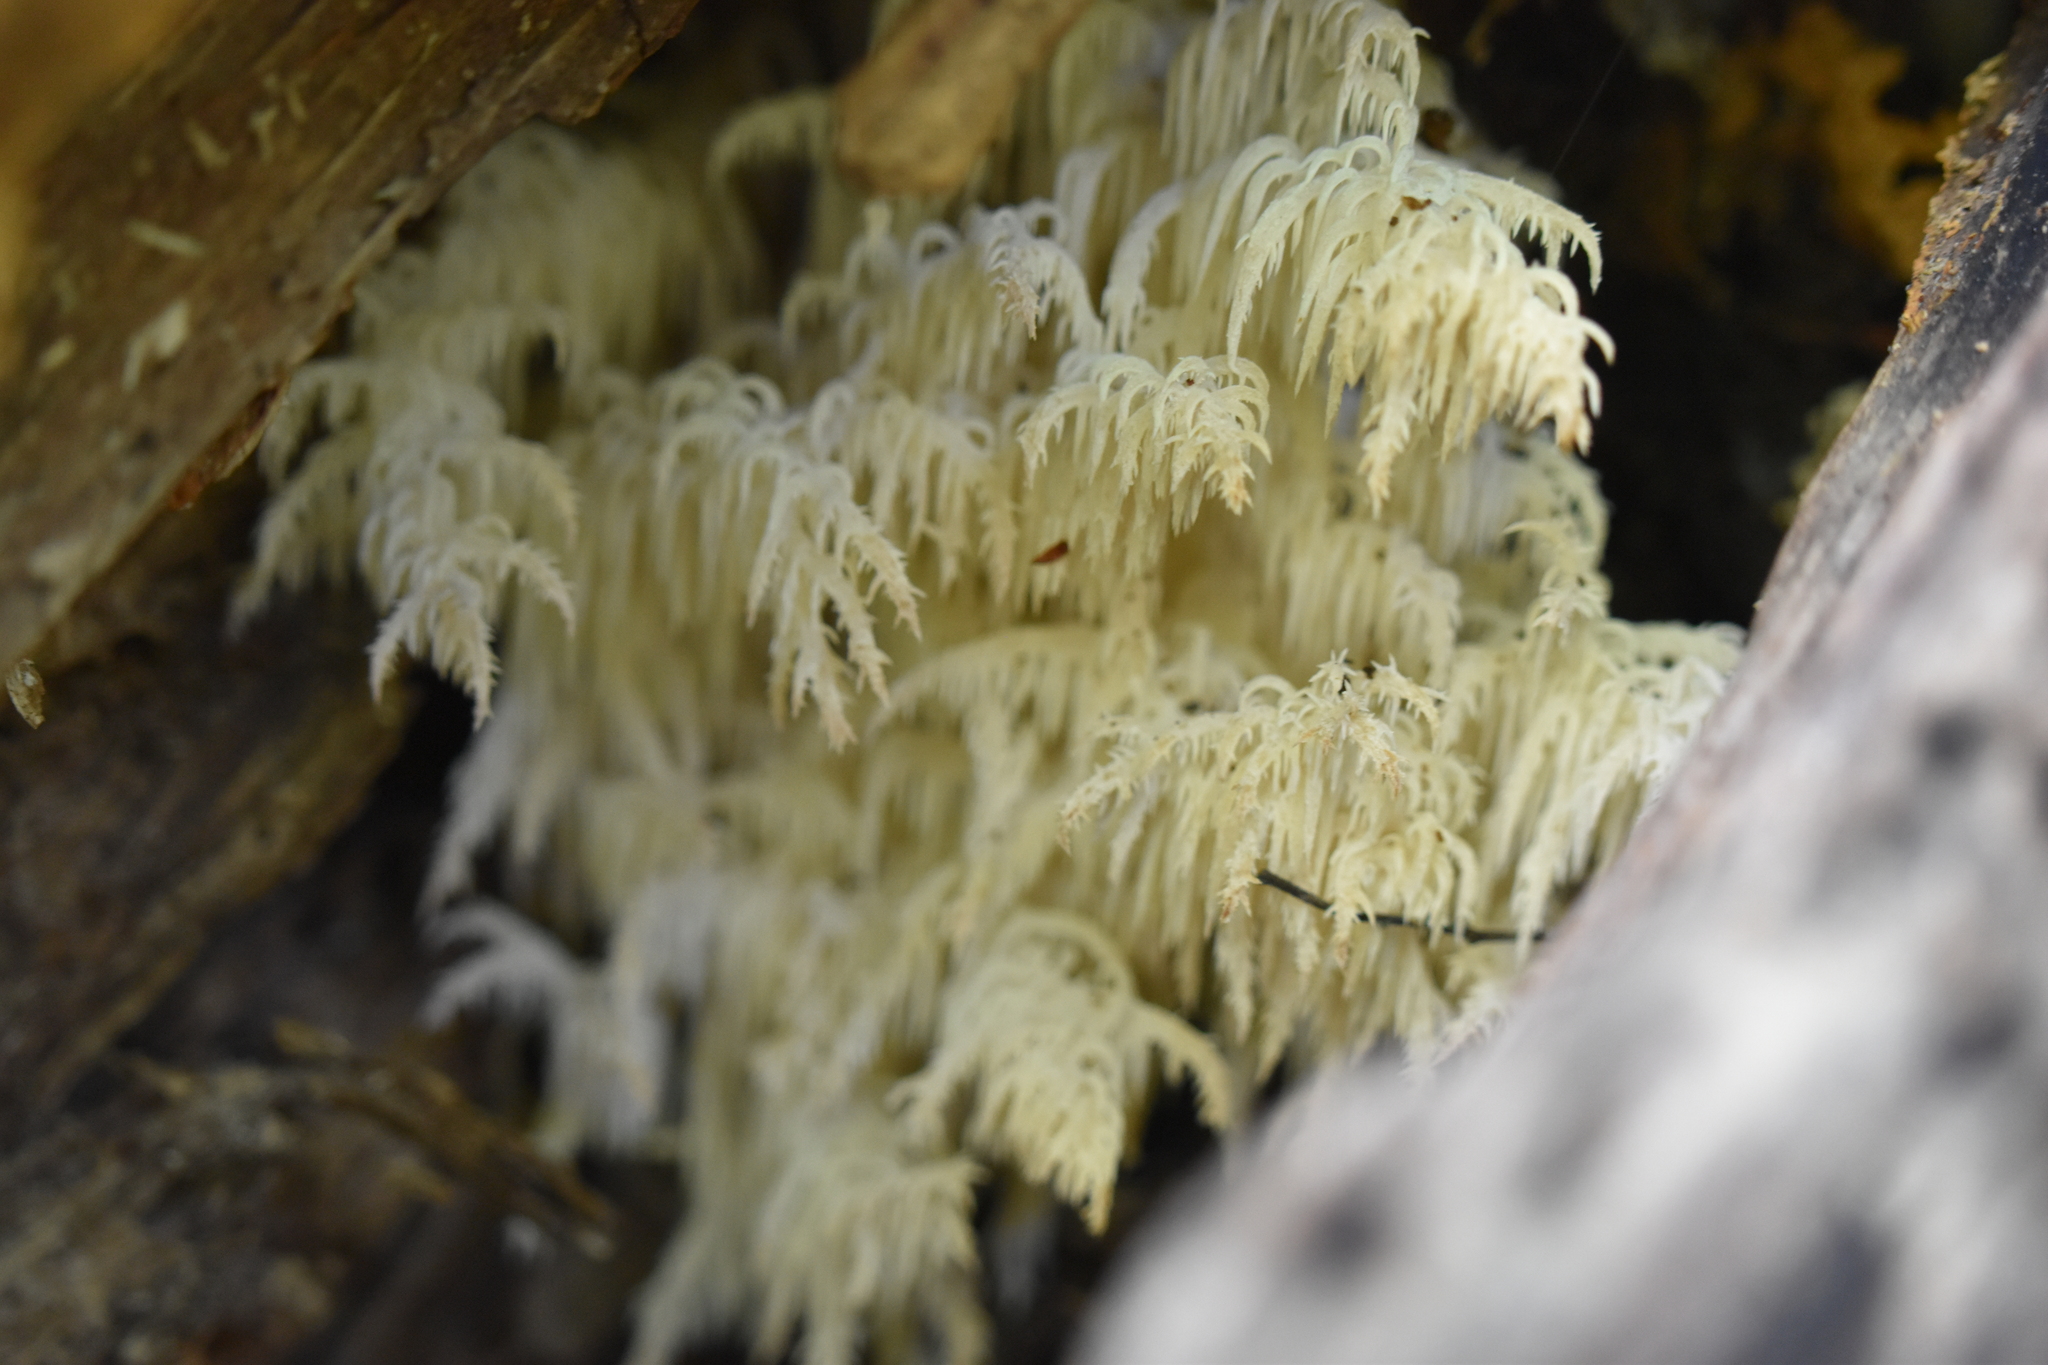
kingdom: Fungi
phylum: Basidiomycota
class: Agaricomycetes
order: Russulales
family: Hericiaceae
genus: Hericium
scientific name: Hericium novae-zealandiae
